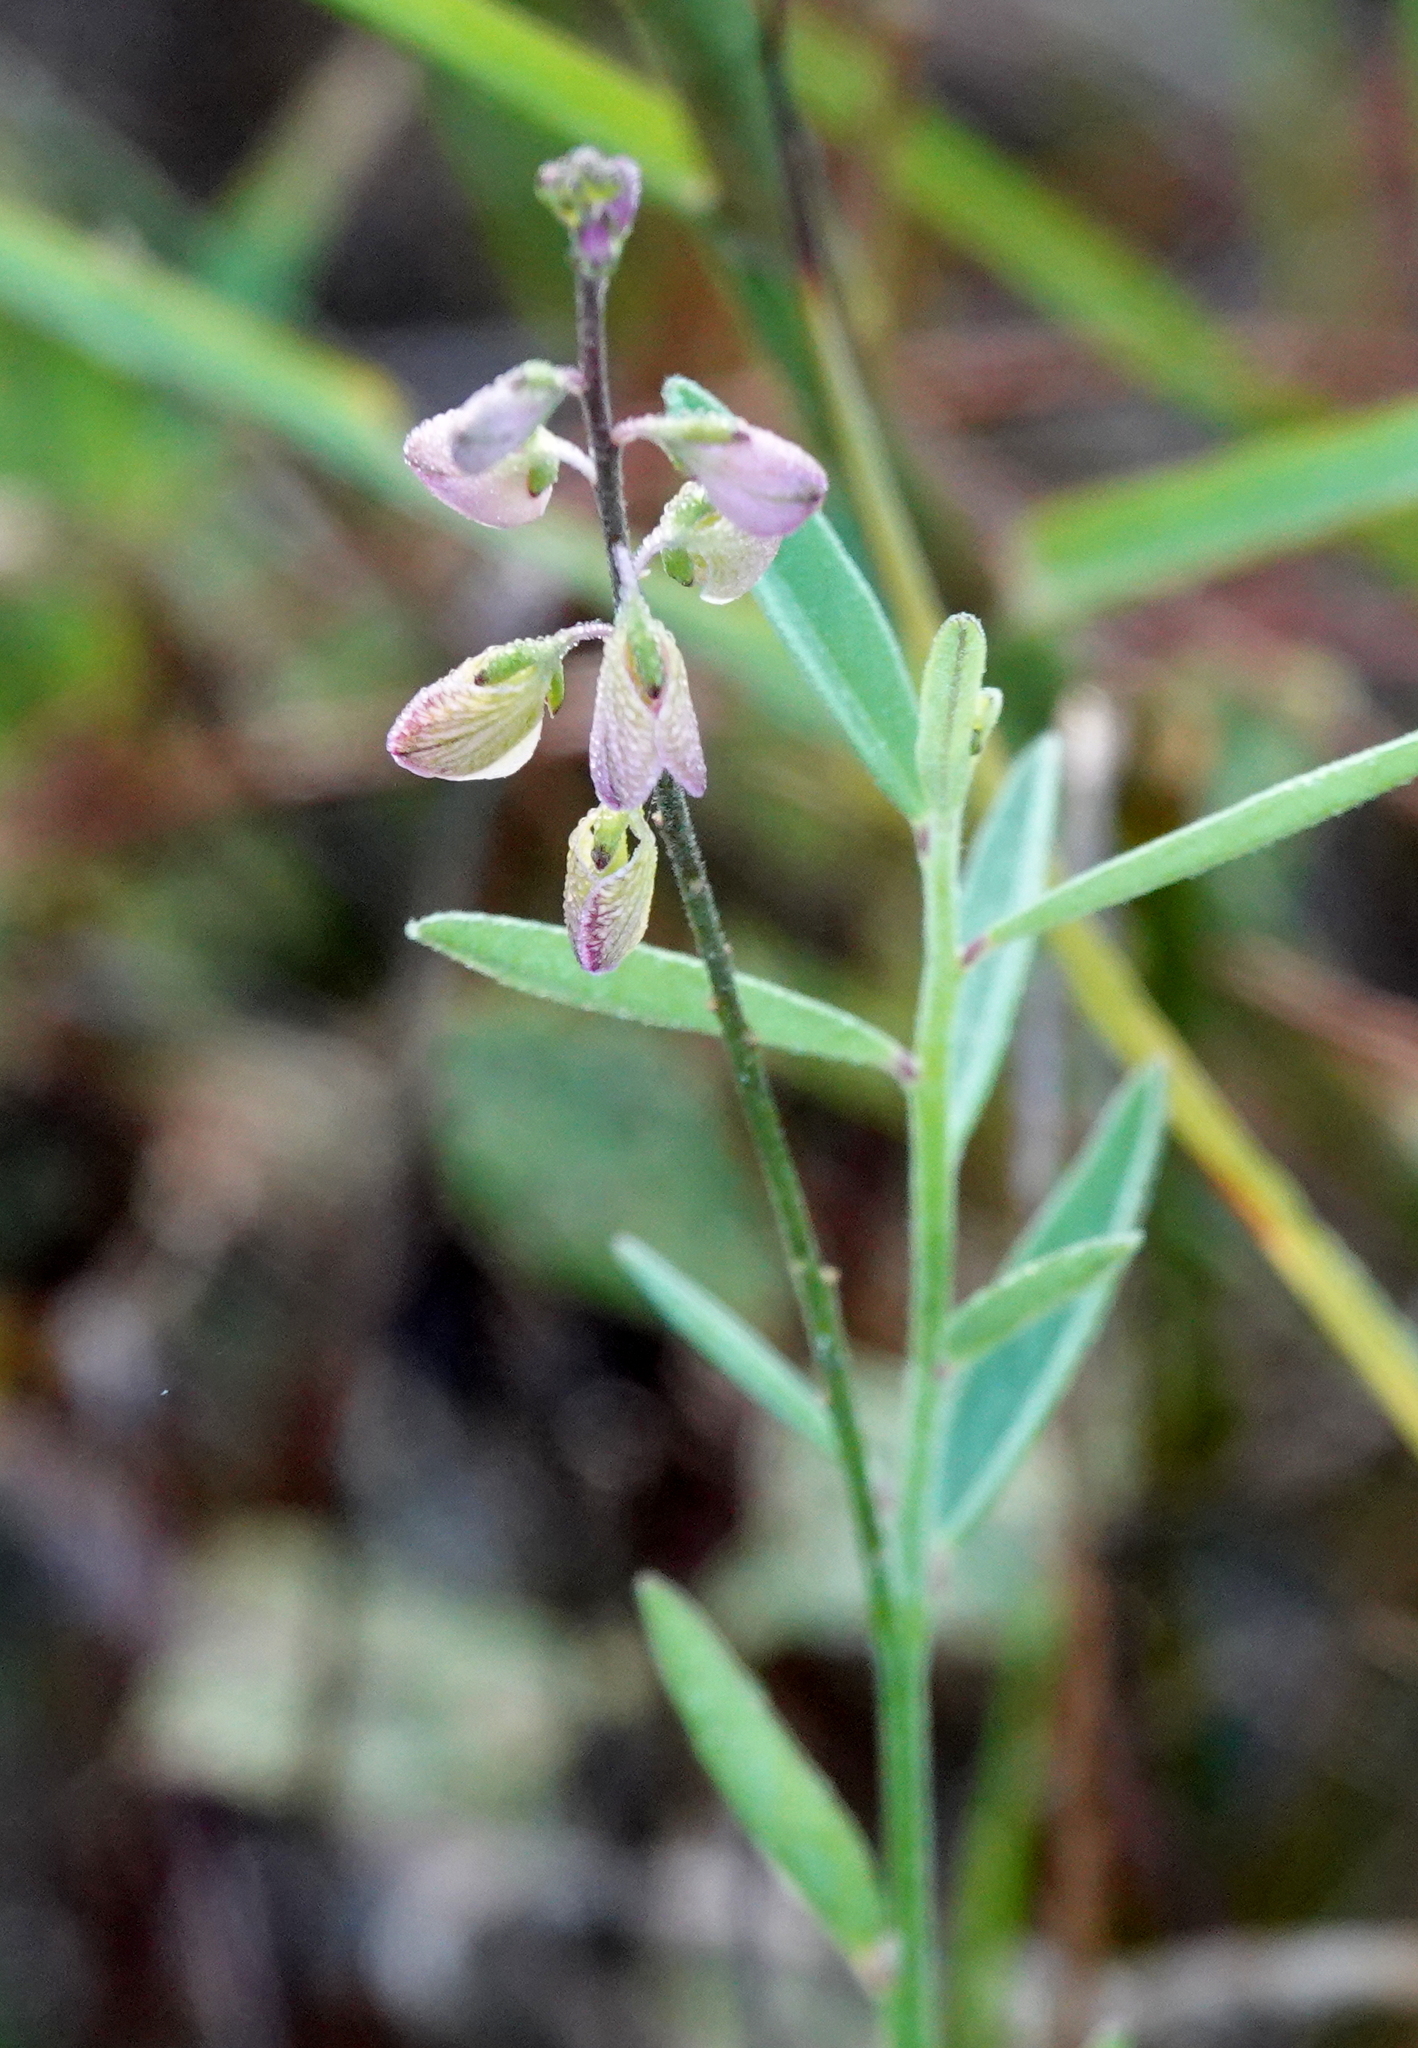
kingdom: Plantae
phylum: Tracheophyta
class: Magnoliopsida
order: Fabales
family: Polygalaceae
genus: Asemeia
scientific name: Asemeia grandiflora
